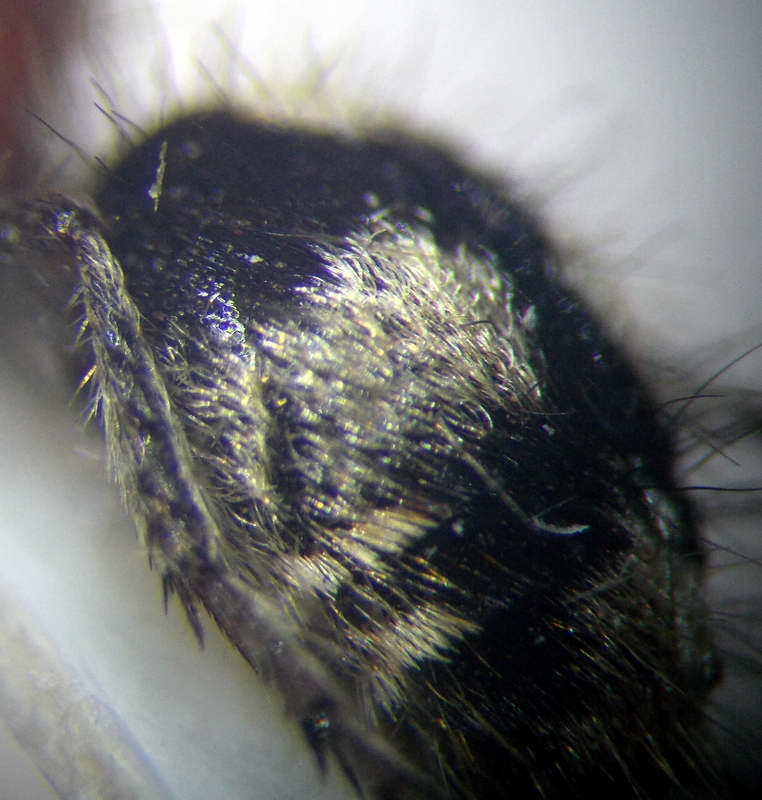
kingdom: Animalia
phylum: Arthropoda
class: Insecta
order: Hymenoptera
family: Mutillidae
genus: Dasylabris
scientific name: Dasylabris maura
